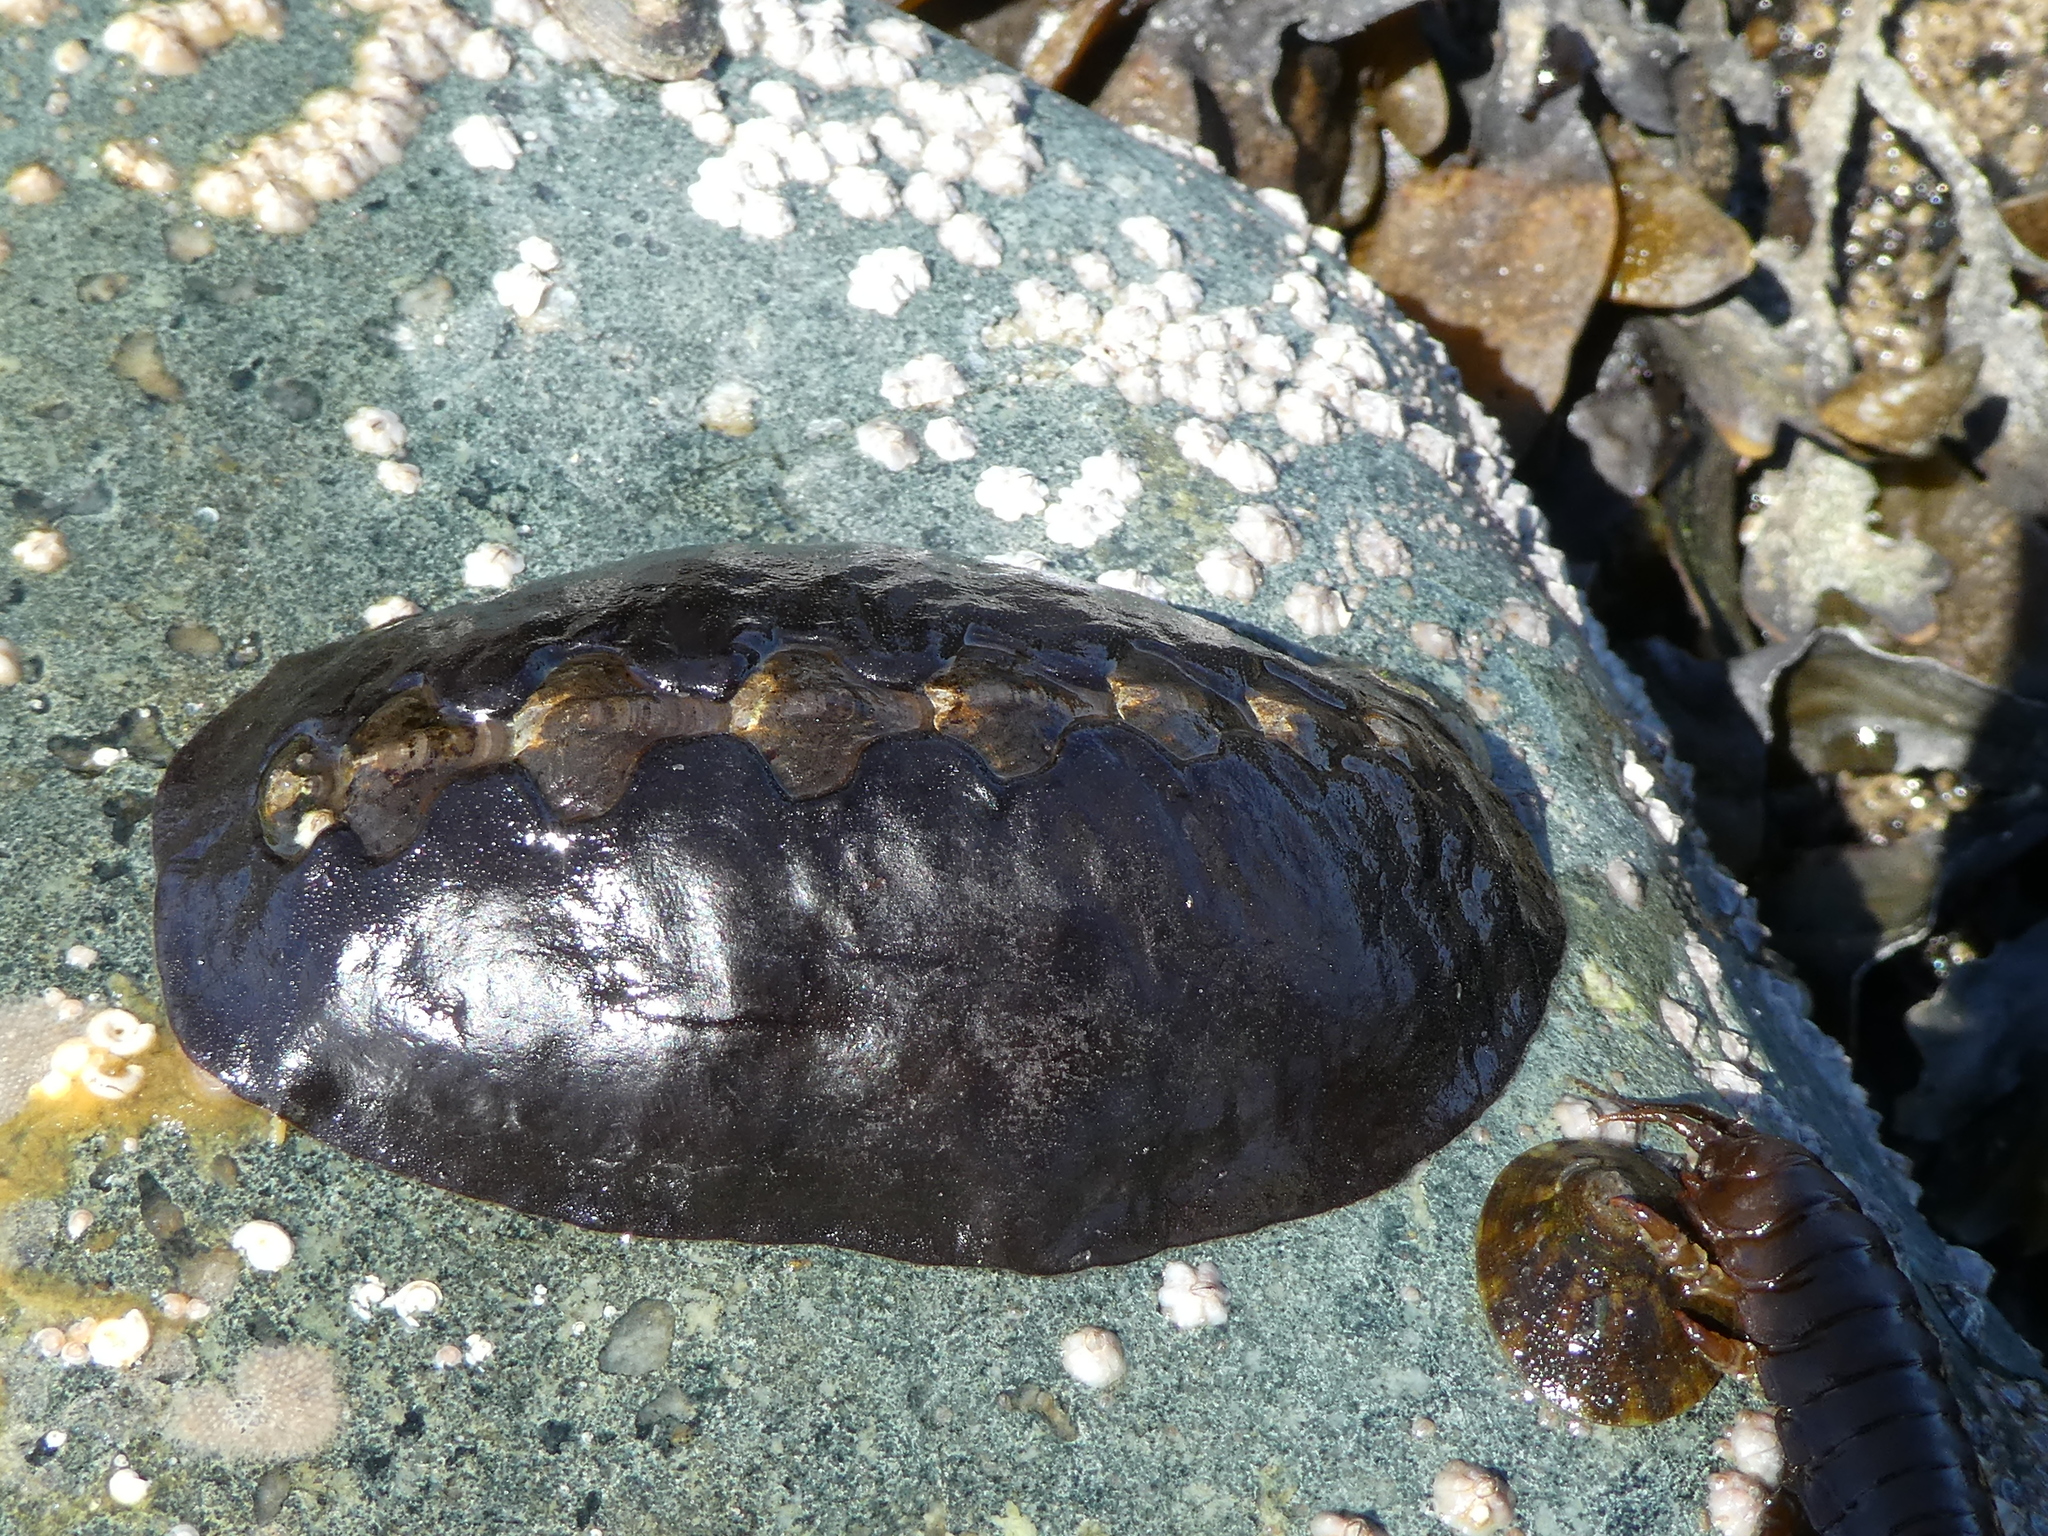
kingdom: Animalia
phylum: Mollusca
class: Polyplacophora
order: Chitonida
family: Mopaliidae
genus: Katharina
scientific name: Katharina tunicata
